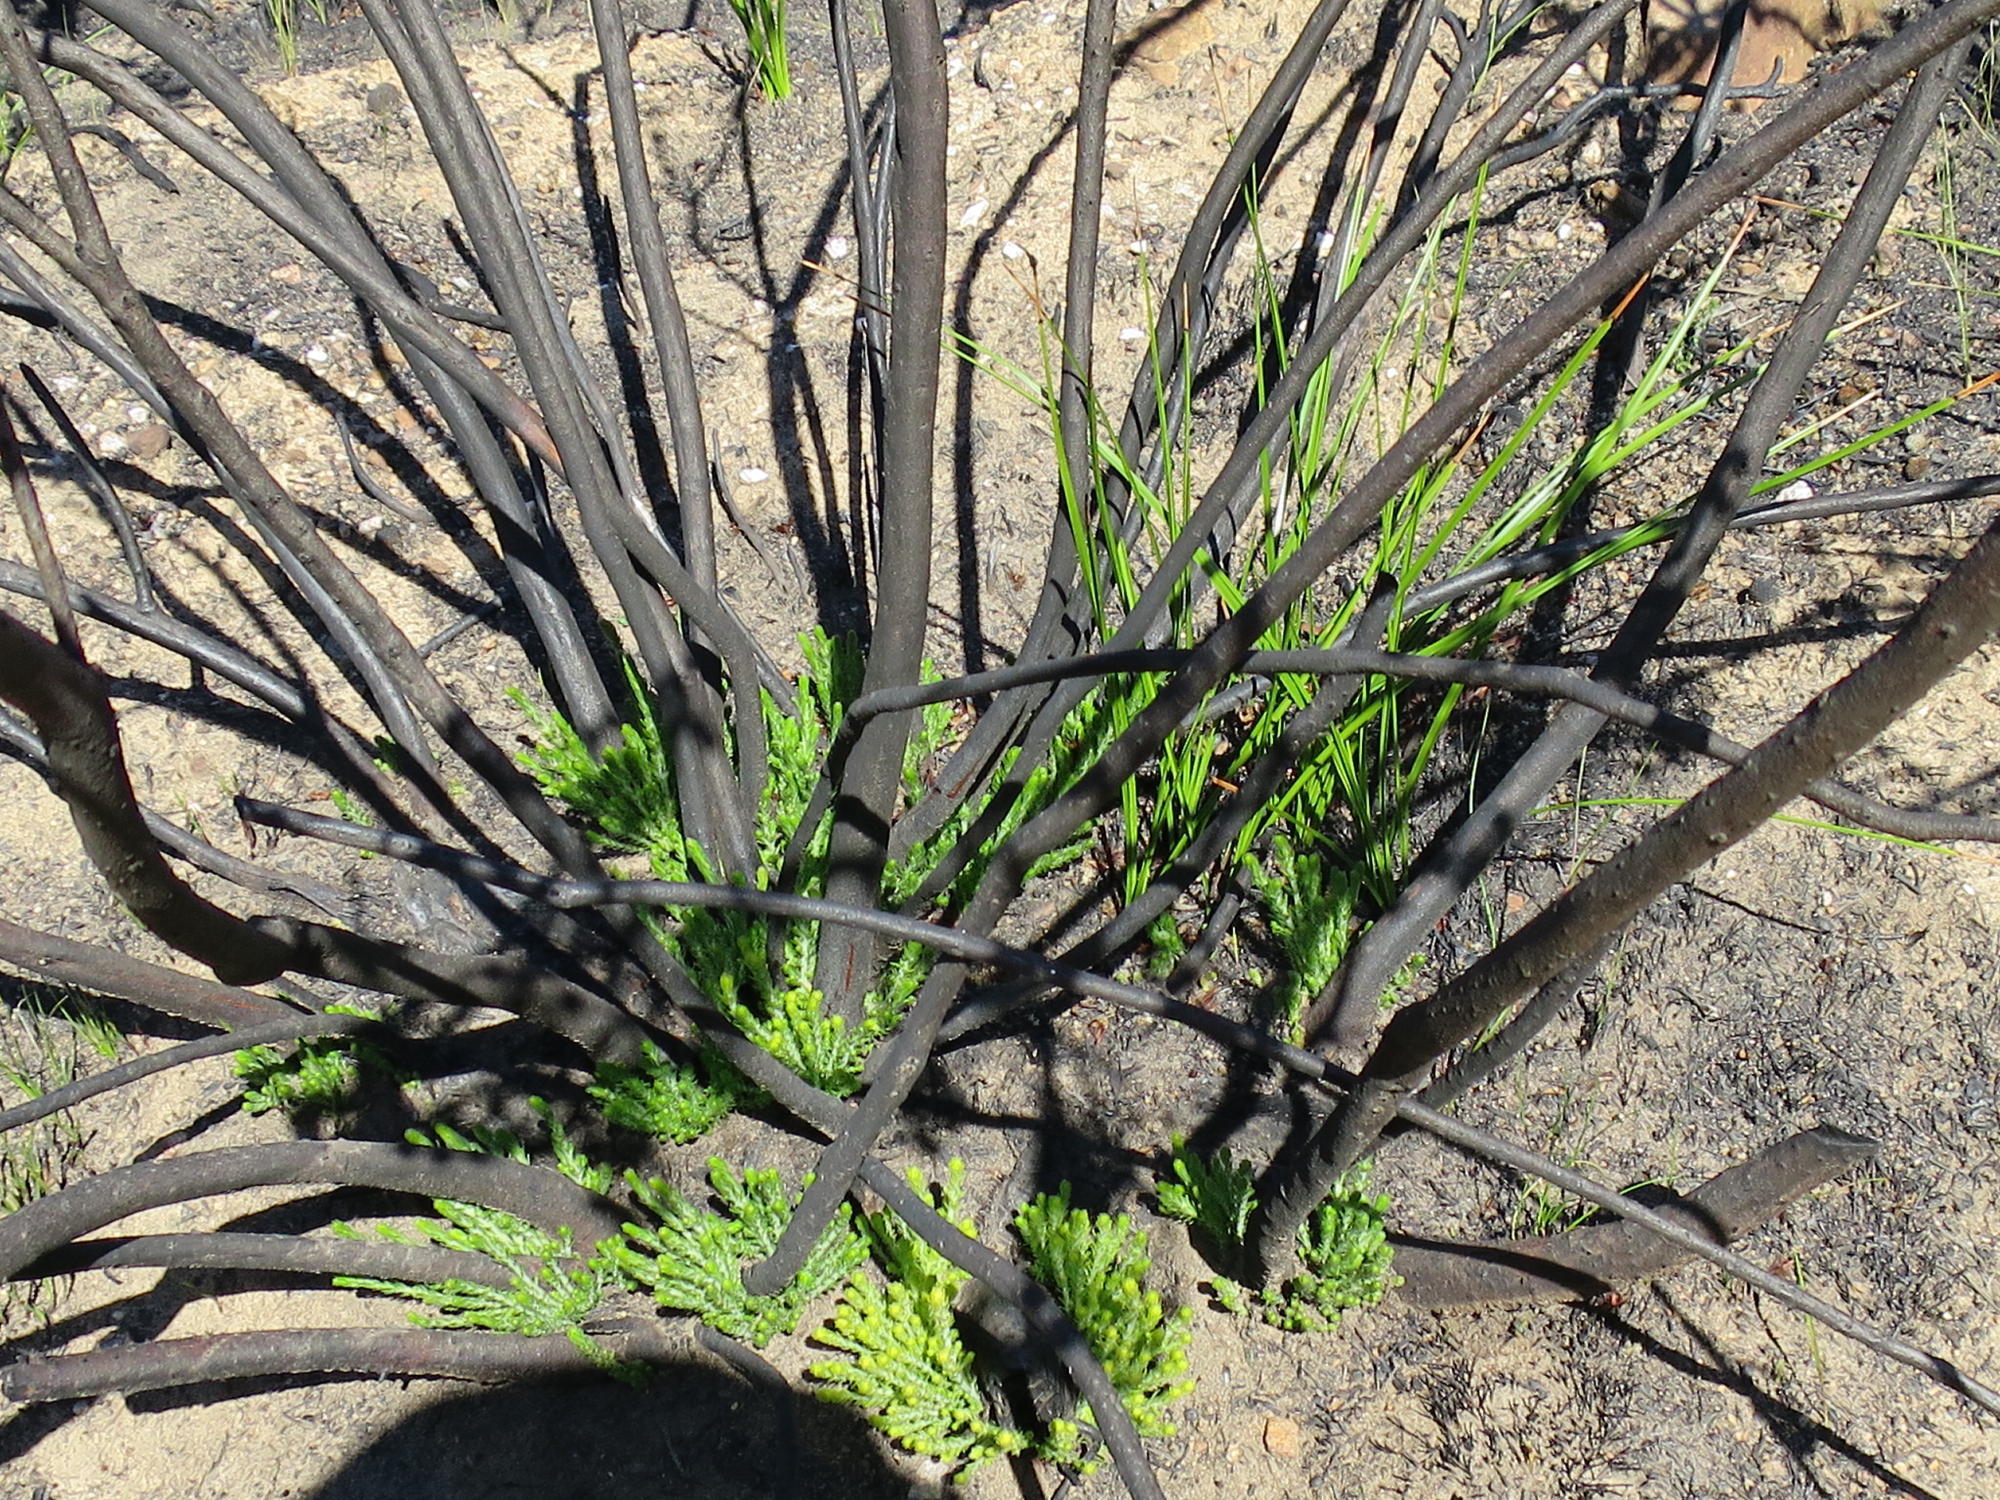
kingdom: Plantae
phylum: Tracheophyta
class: Magnoliopsida
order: Bruniales
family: Bruniaceae
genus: Brunia
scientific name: Brunia noduliflora
